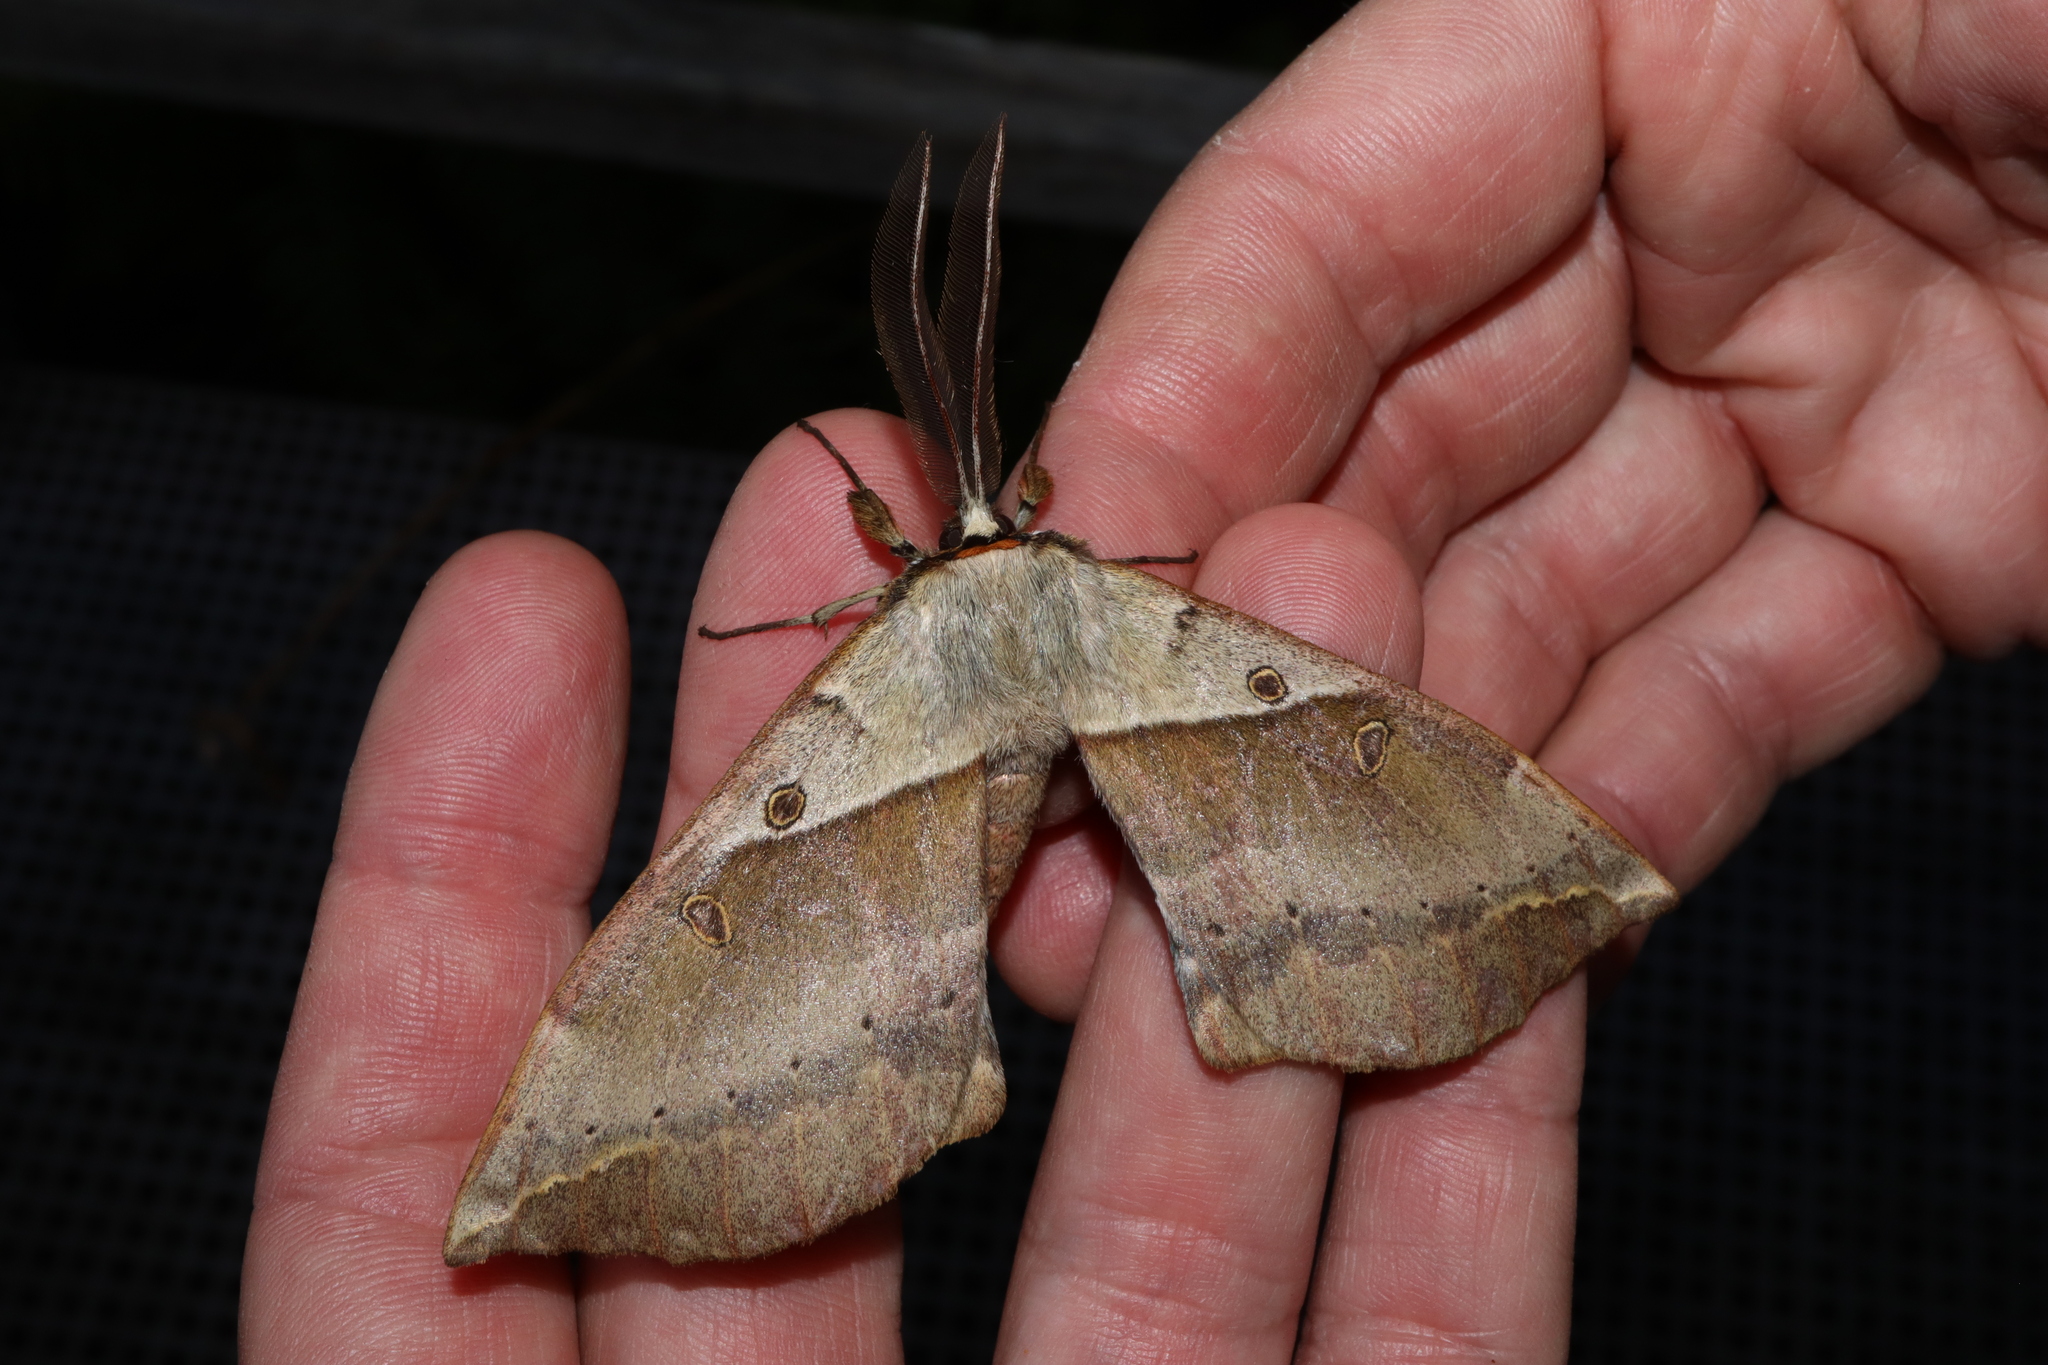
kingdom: Animalia
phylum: Arthropoda
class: Insecta
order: Lepidoptera
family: Anthelidae
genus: Chelepteryx
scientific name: Chelepteryx chalepteryx
